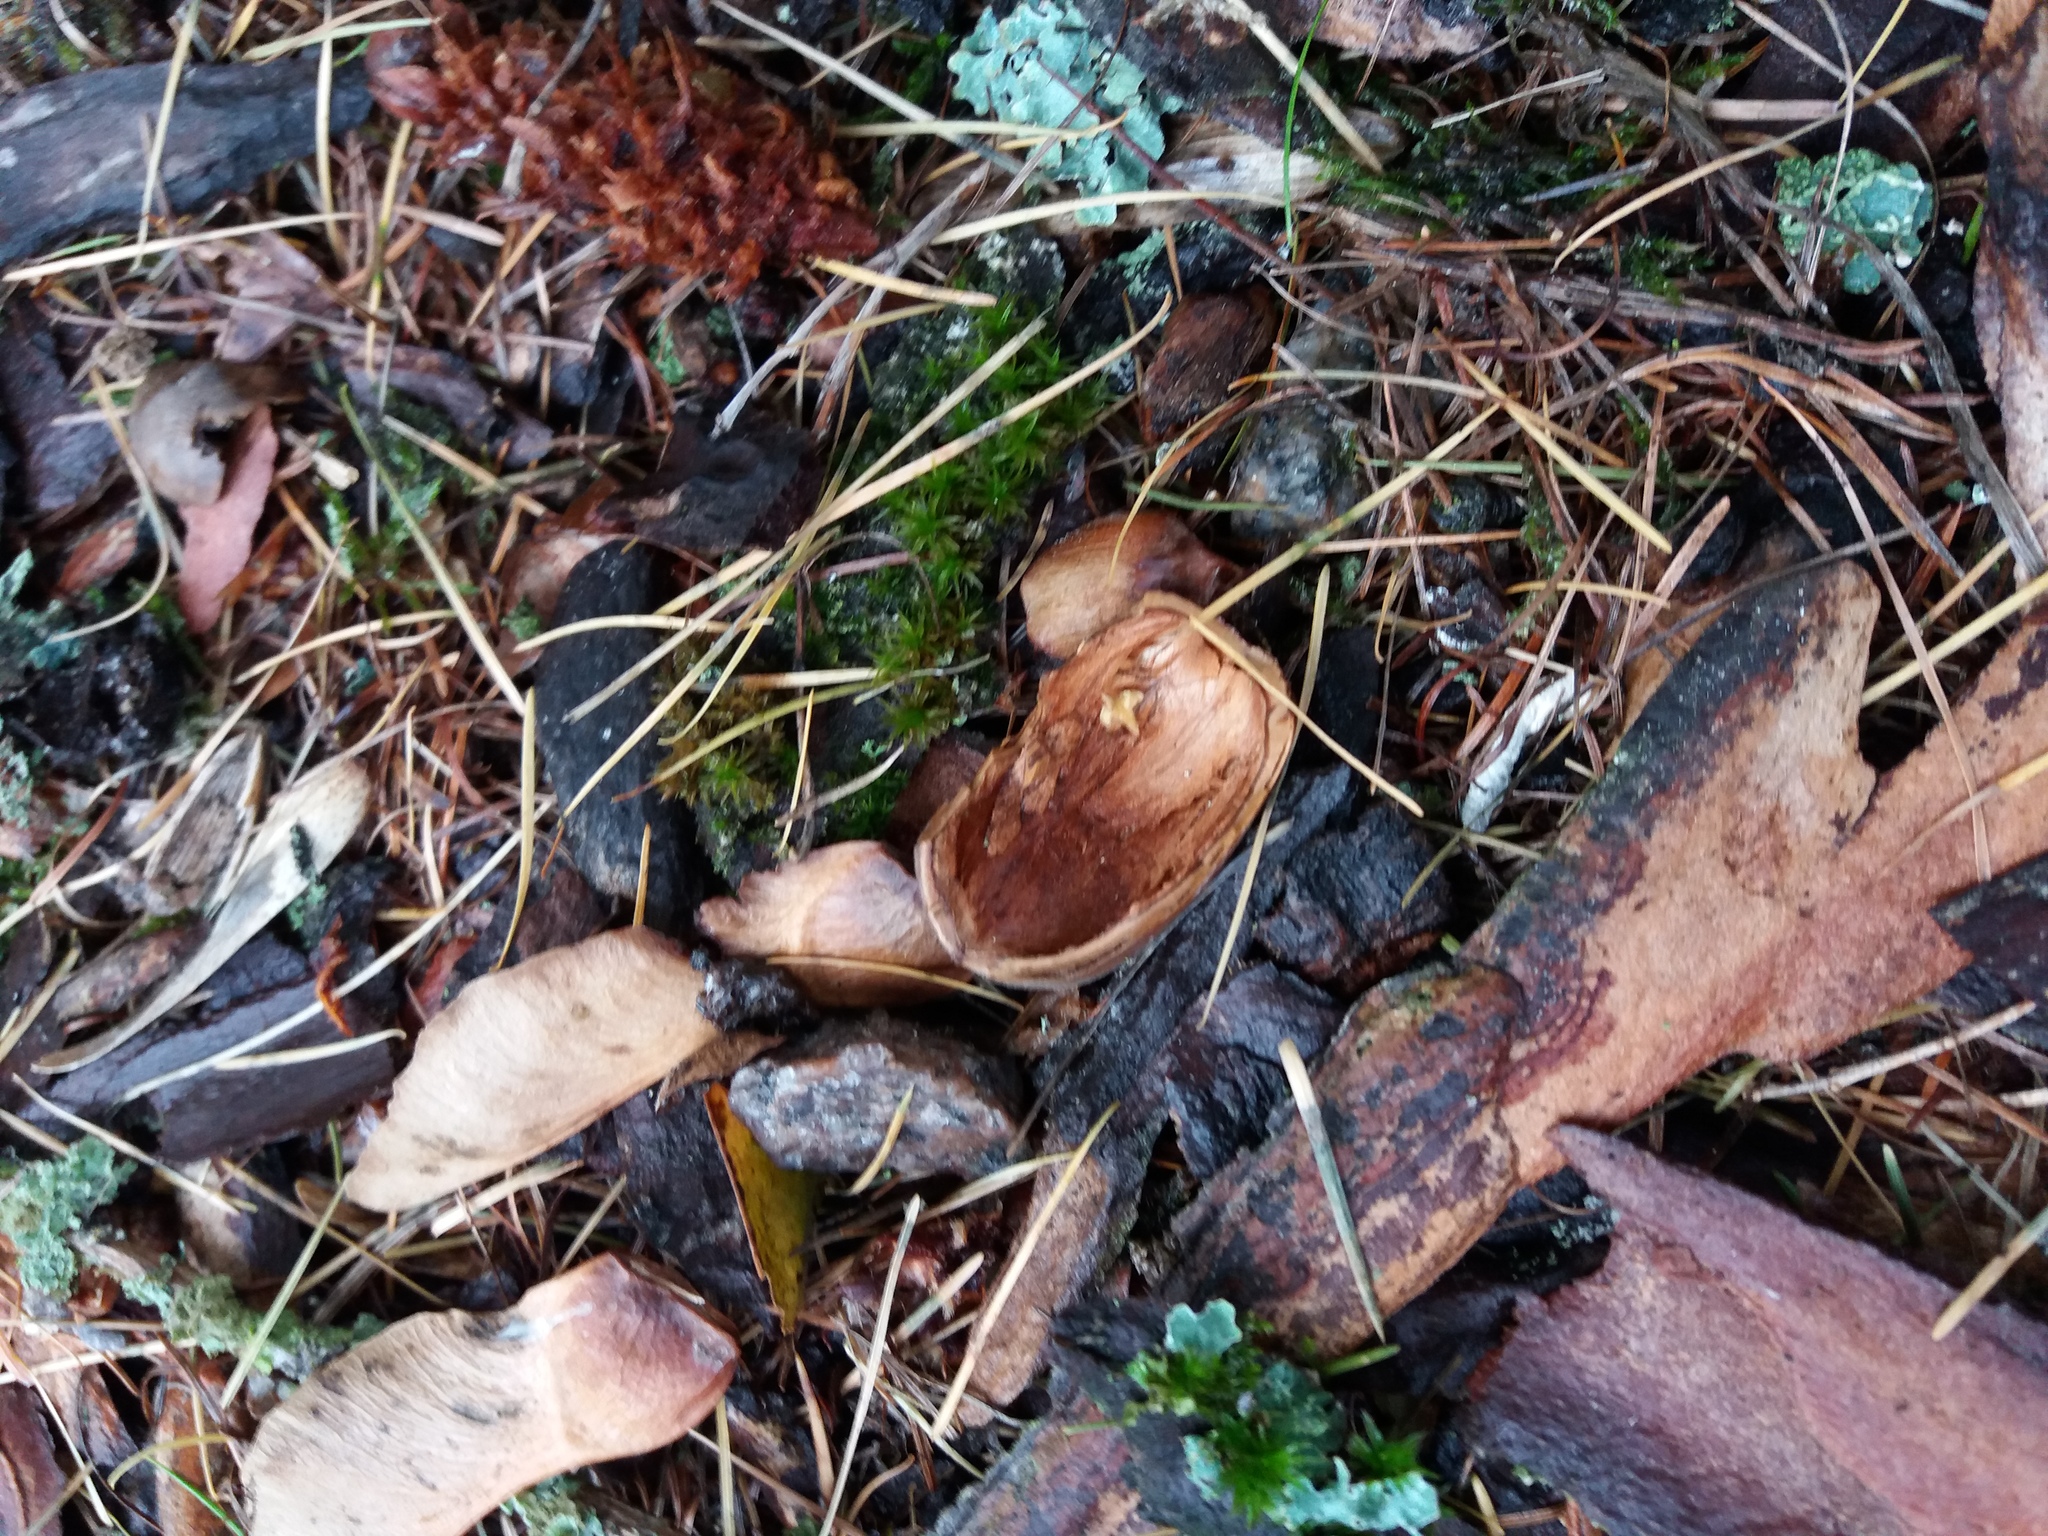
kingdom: Animalia
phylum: Chordata
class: Mammalia
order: Rodentia
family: Sciuridae
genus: Sciurus
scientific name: Sciurus vulgaris
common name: Eurasian red squirrel
